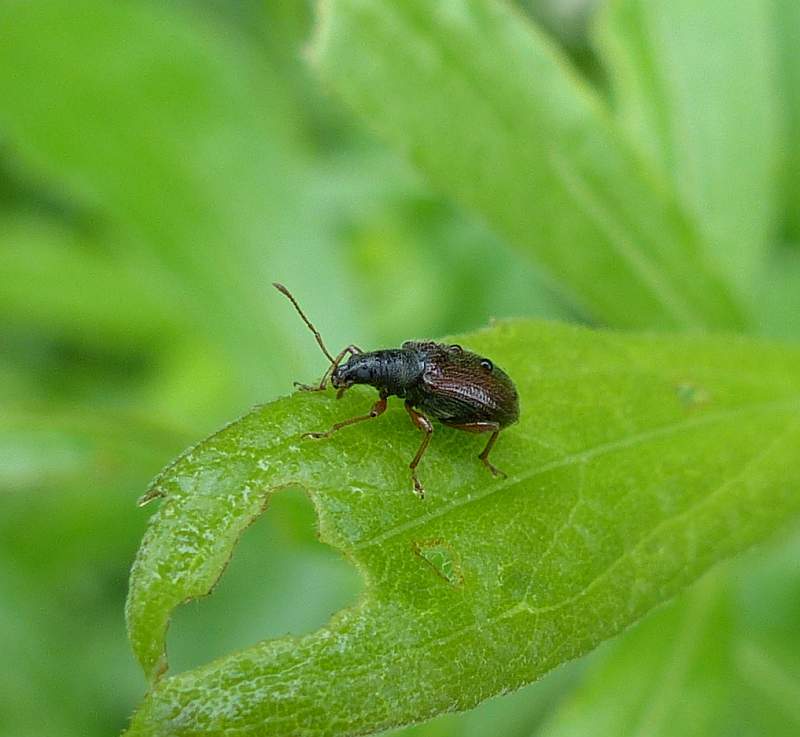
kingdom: Animalia
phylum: Arthropoda
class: Insecta
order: Coleoptera
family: Curculionidae
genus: Phyllobius
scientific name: Phyllobius oblongus
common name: Brown leaf weevil
